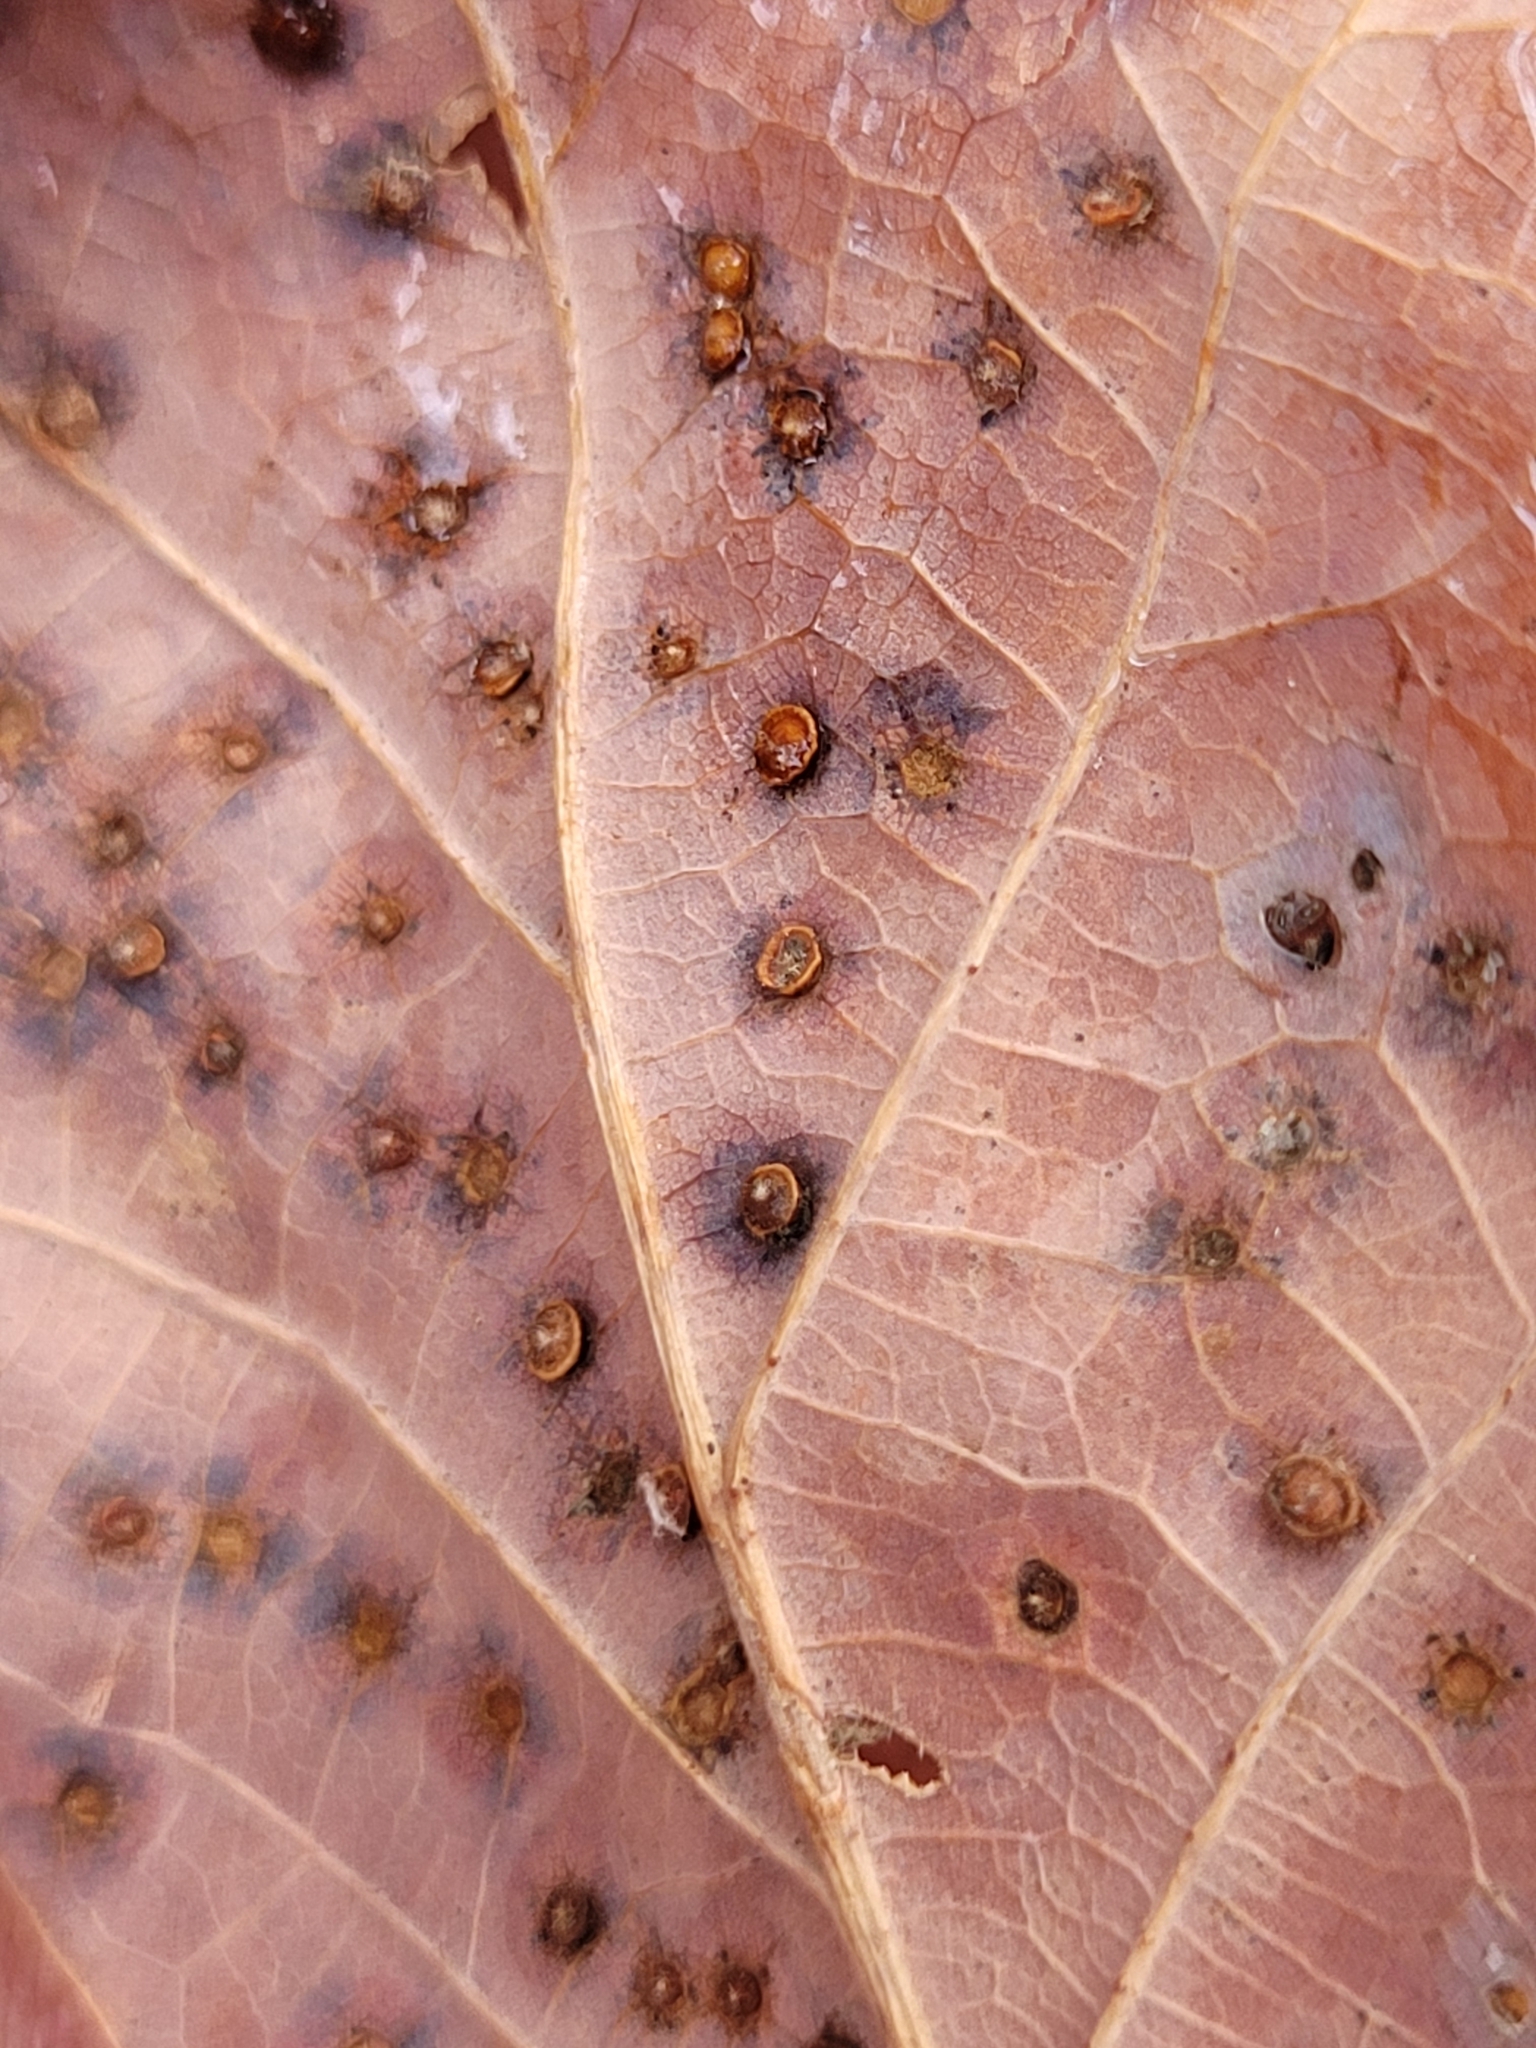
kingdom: Animalia
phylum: Arthropoda
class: Insecta
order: Hymenoptera
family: Cynipidae
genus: Neuroterus
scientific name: Neuroterus
